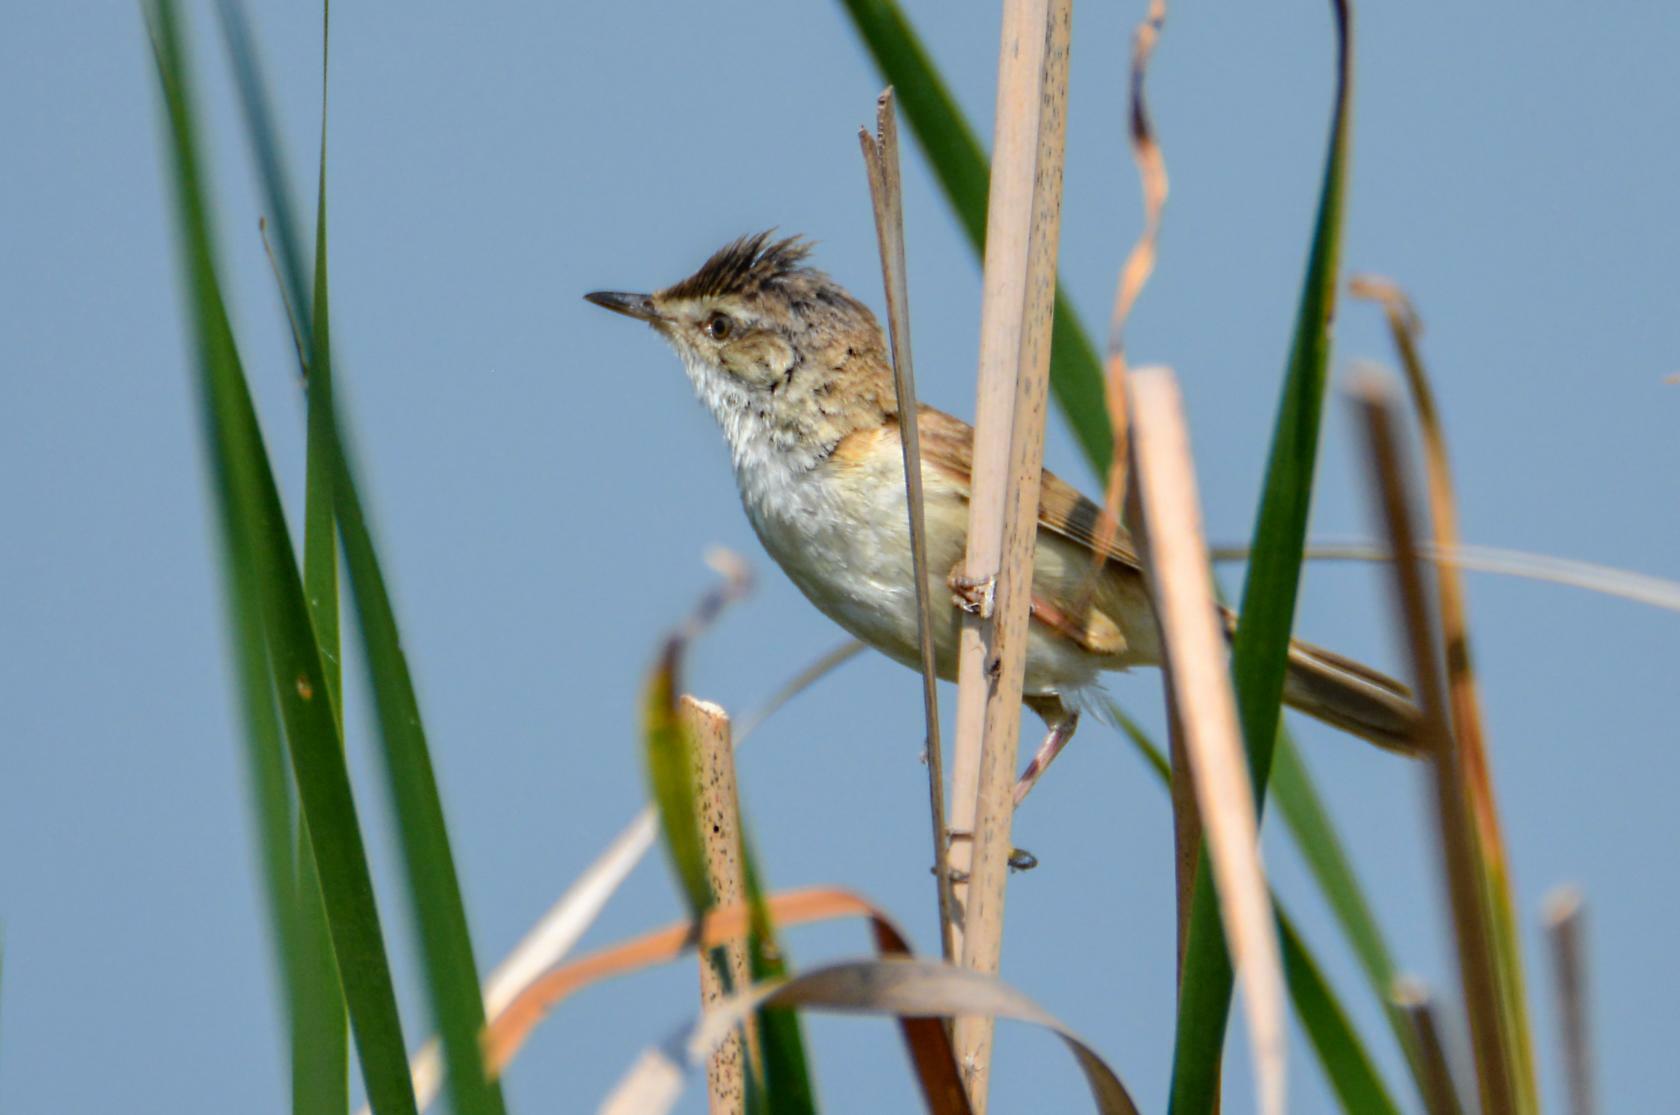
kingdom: Animalia
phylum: Chordata
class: Aves
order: Passeriformes
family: Acrocephalidae
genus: Acrocephalus
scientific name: Acrocephalus arundinaceus
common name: Great reed warbler
